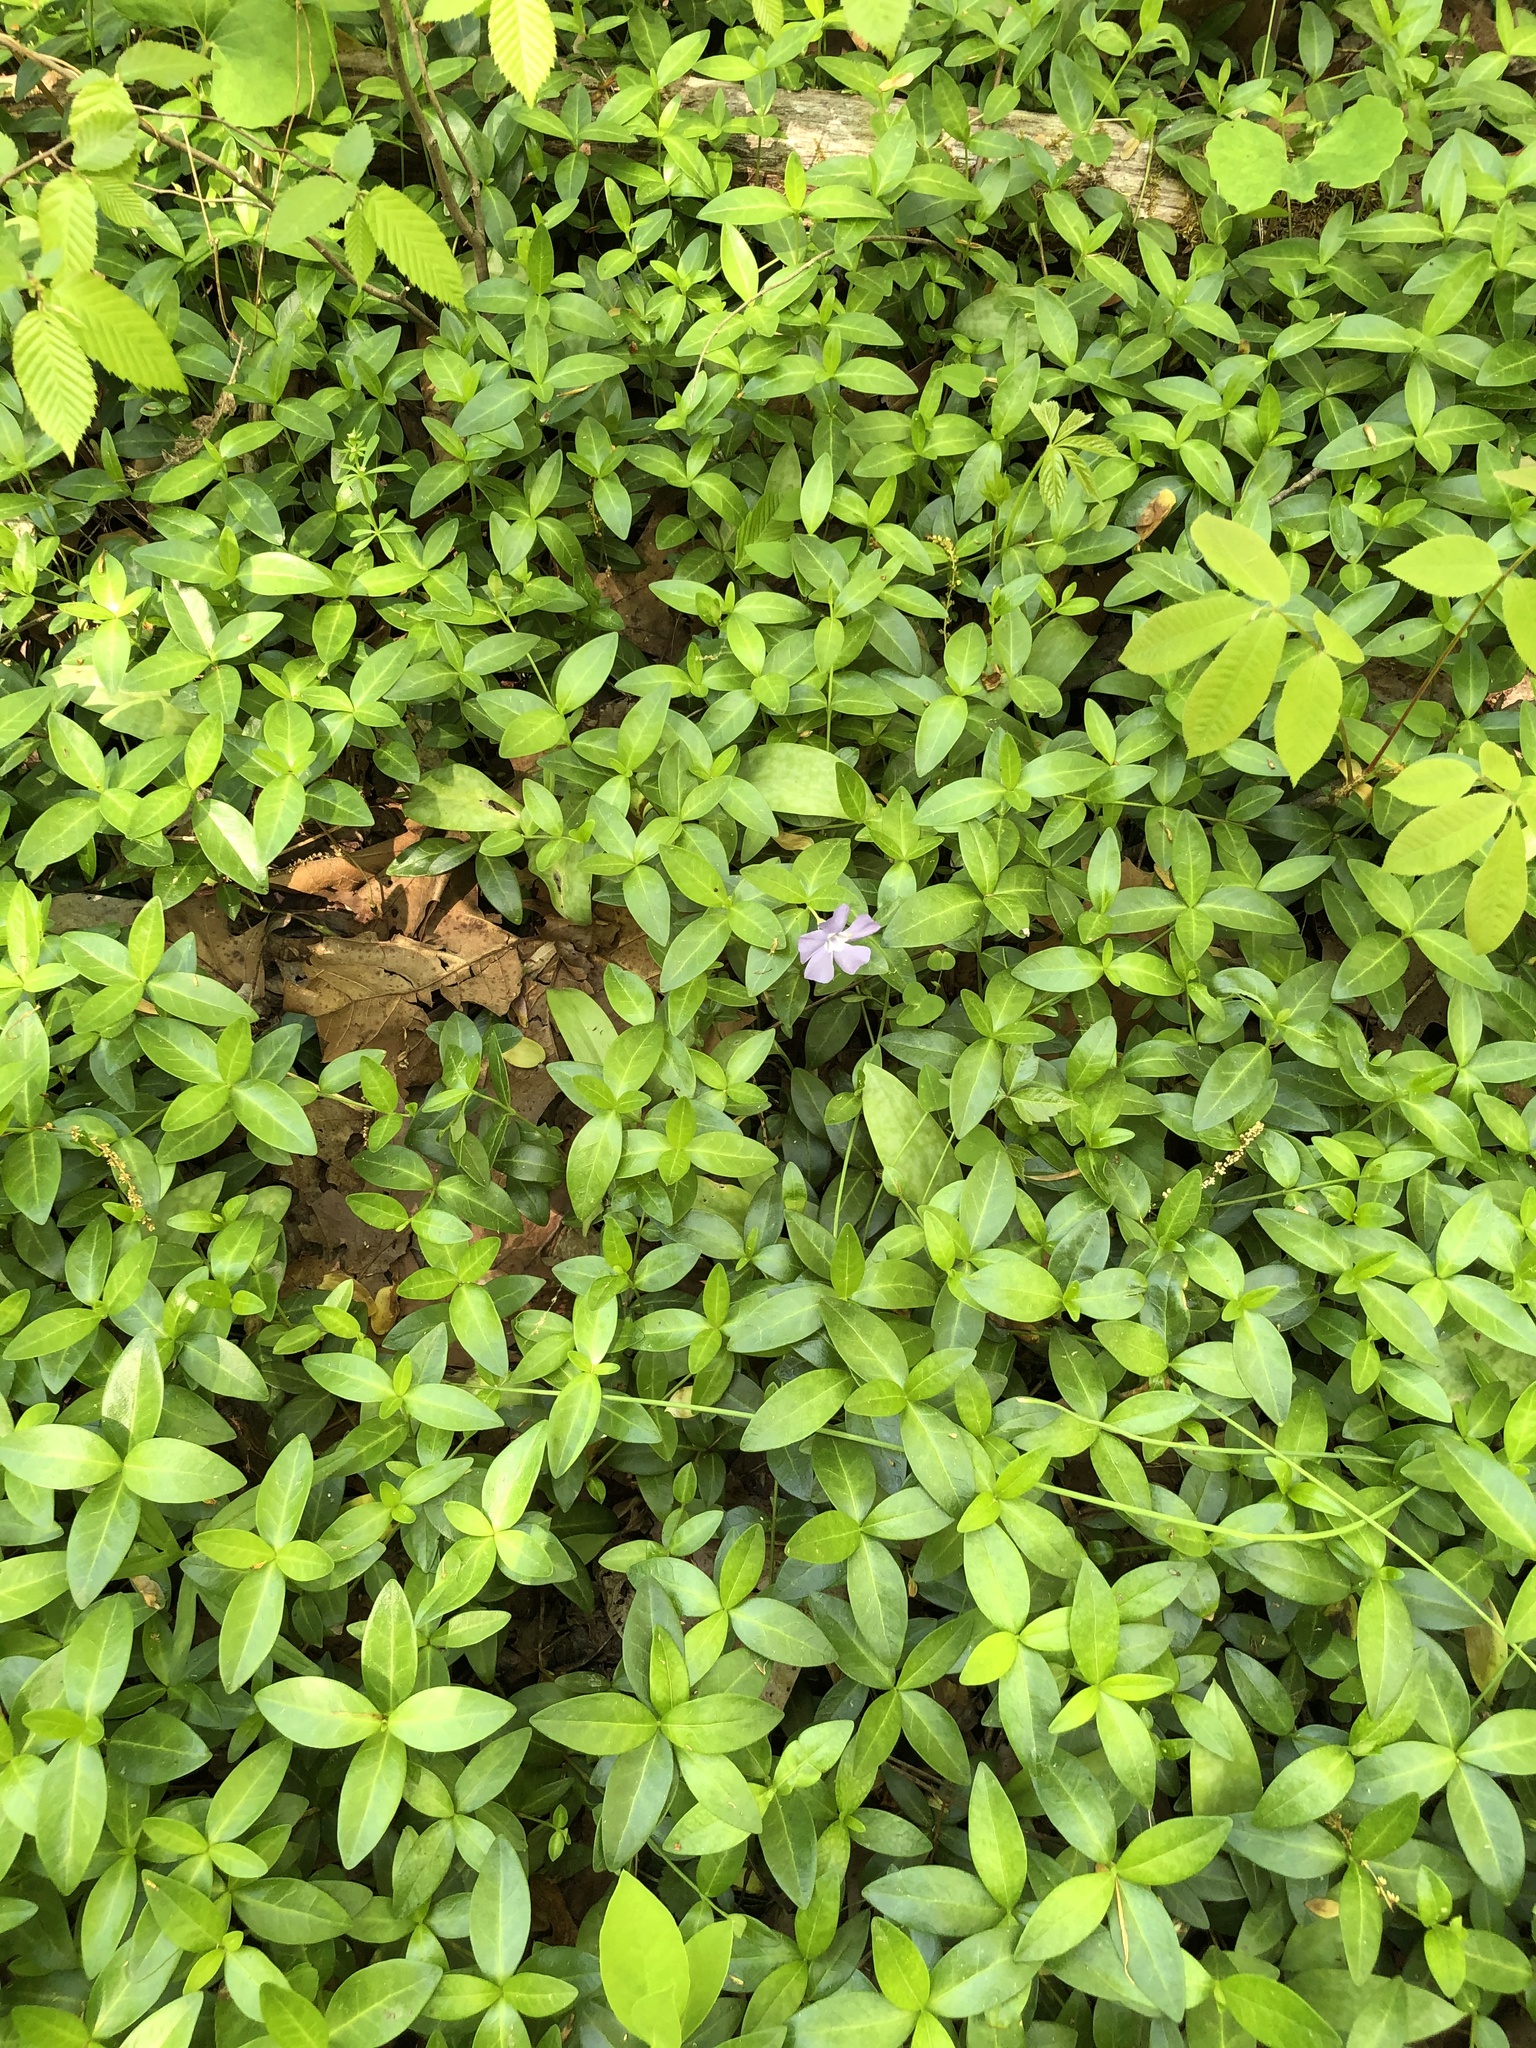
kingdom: Plantae
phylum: Tracheophyta
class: Magnoliopsida
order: Gentianales
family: Apocynaceae
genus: Vinca
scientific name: Vinca minor
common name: Lesser periwinkle
